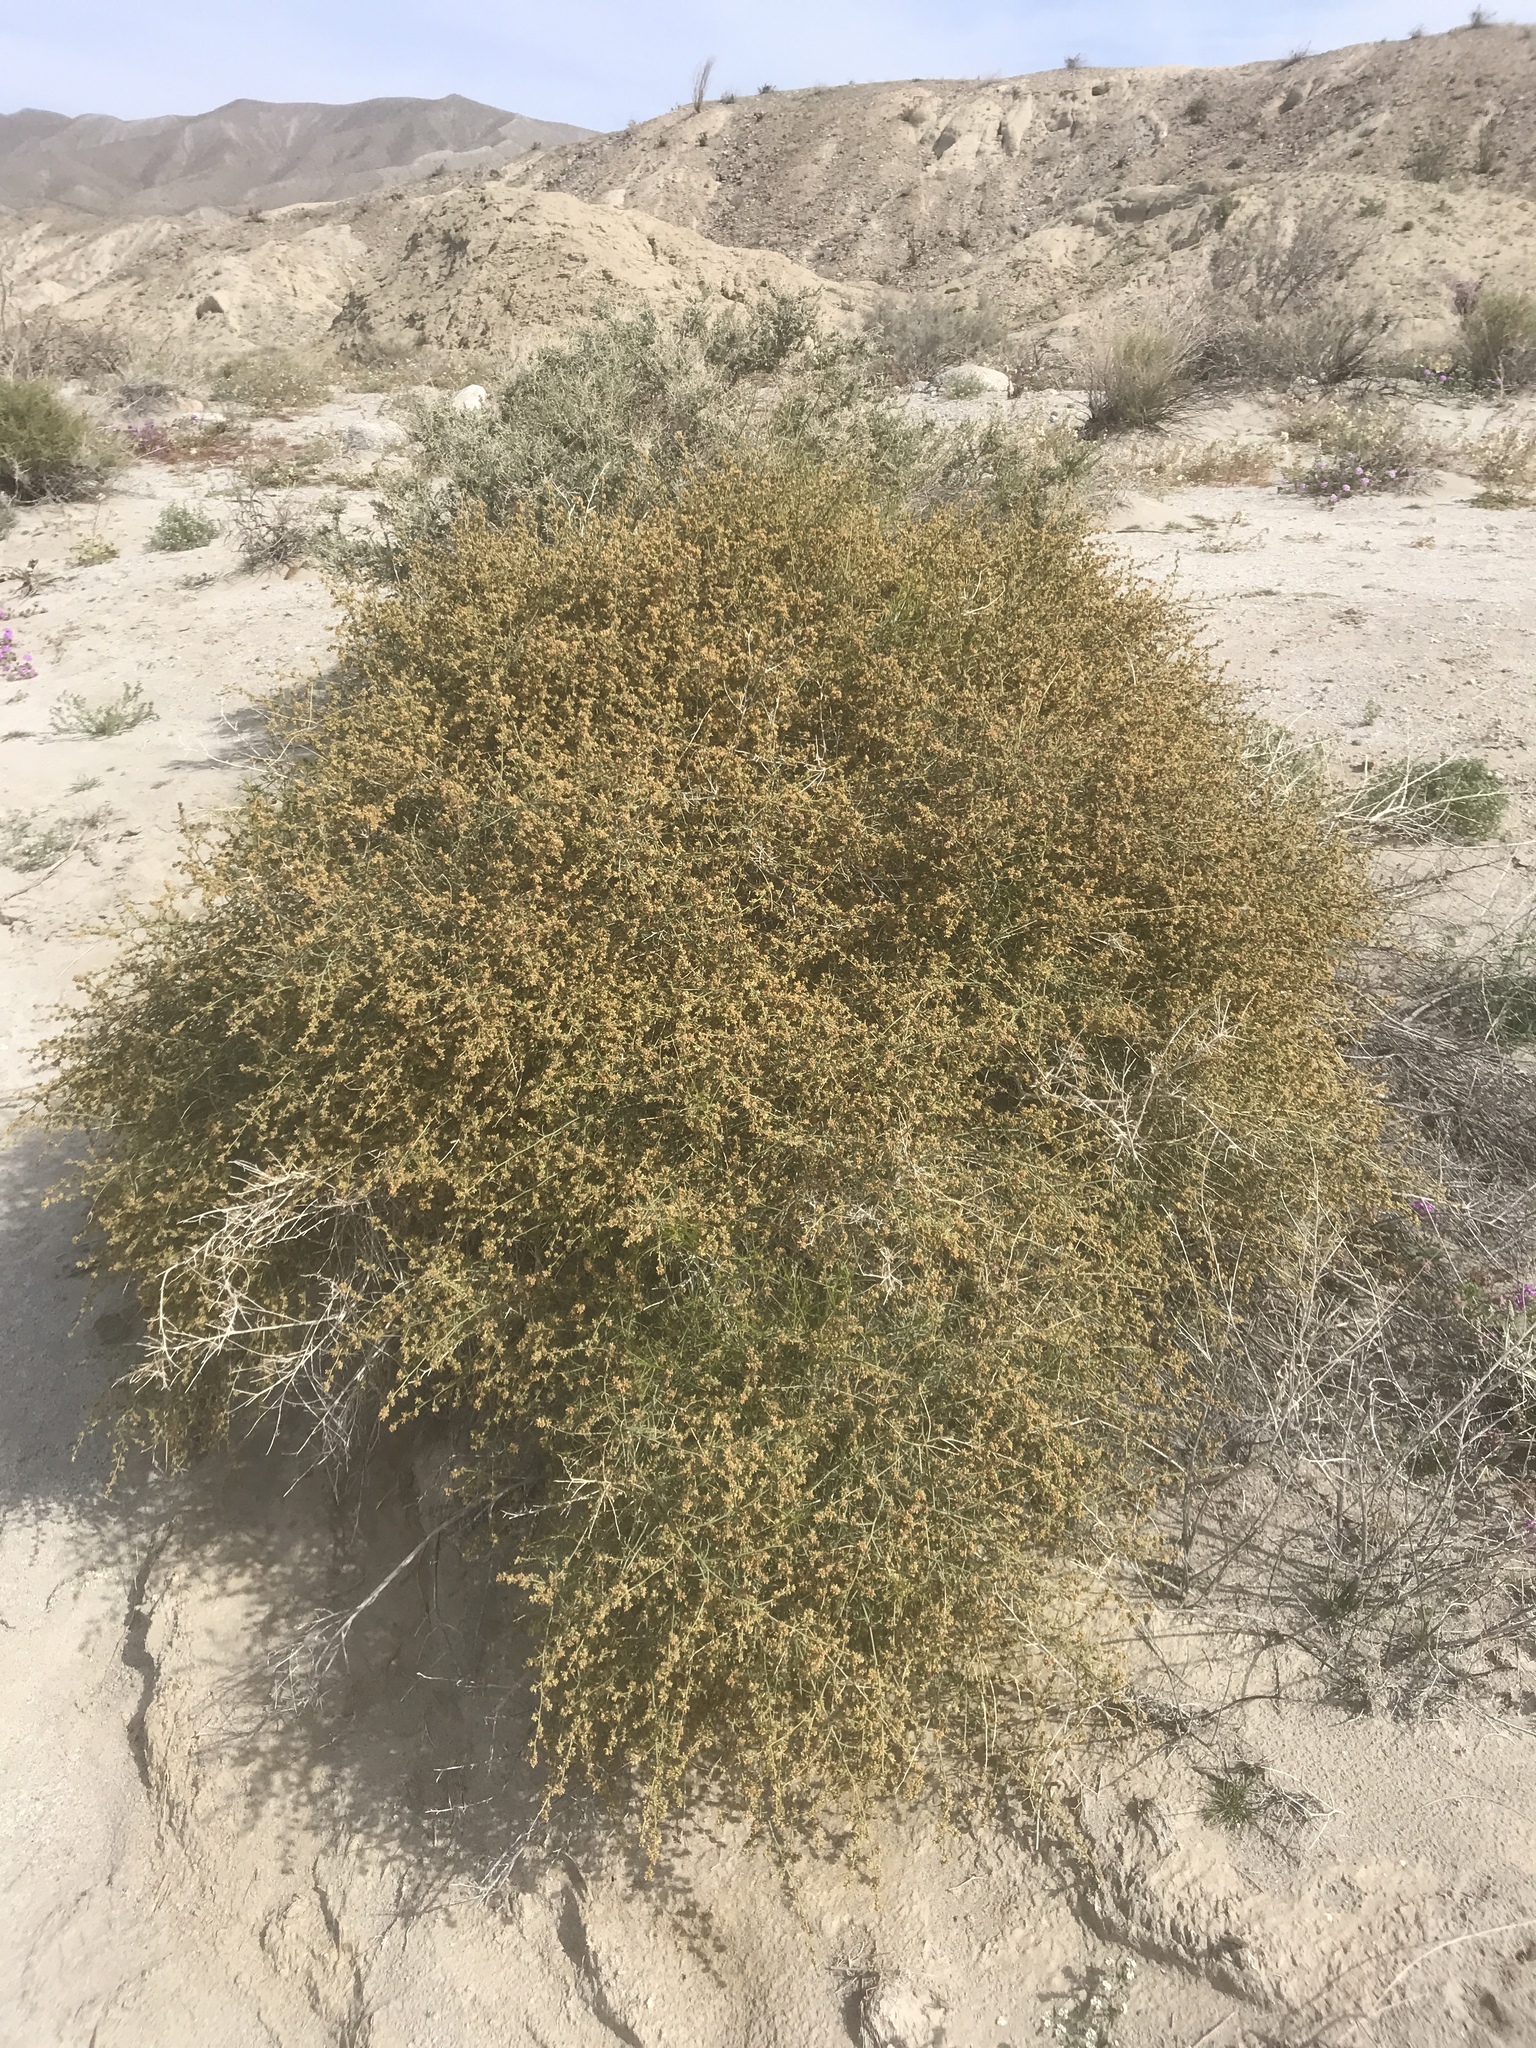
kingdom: Plantae
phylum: Tracheophyta
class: Magnoliopsida
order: Asterales
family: Asteraceae
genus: Ambrosia
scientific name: Ambrosia salsola
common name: Burrobrush
